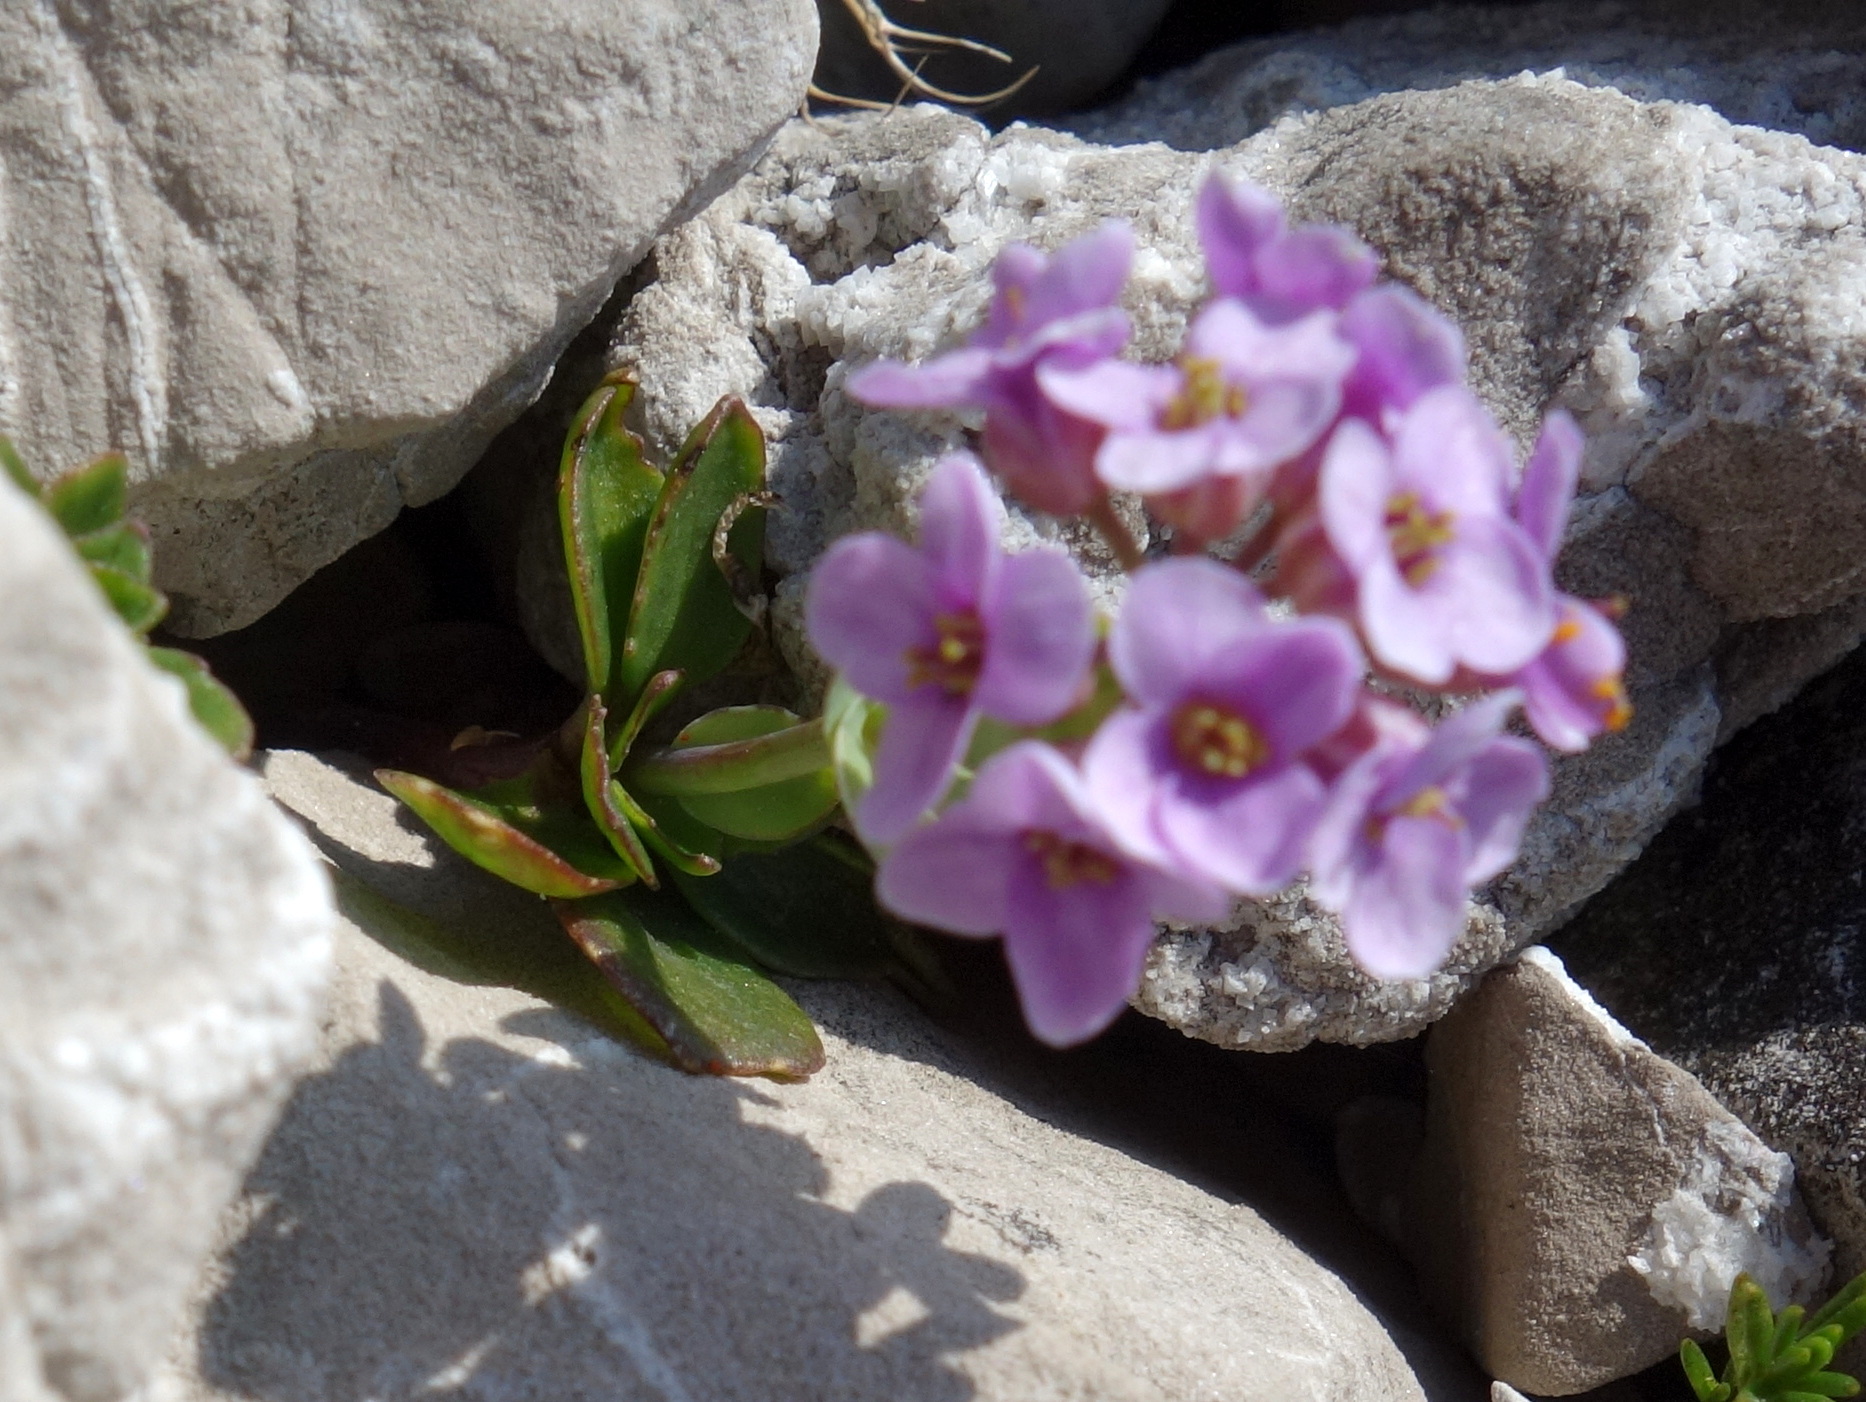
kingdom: Plantae
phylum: Tracheophyta
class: Magnoliopsida
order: Brassicales
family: Brassicaceae
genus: Noccaea
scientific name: Noccaea rotundifolia
